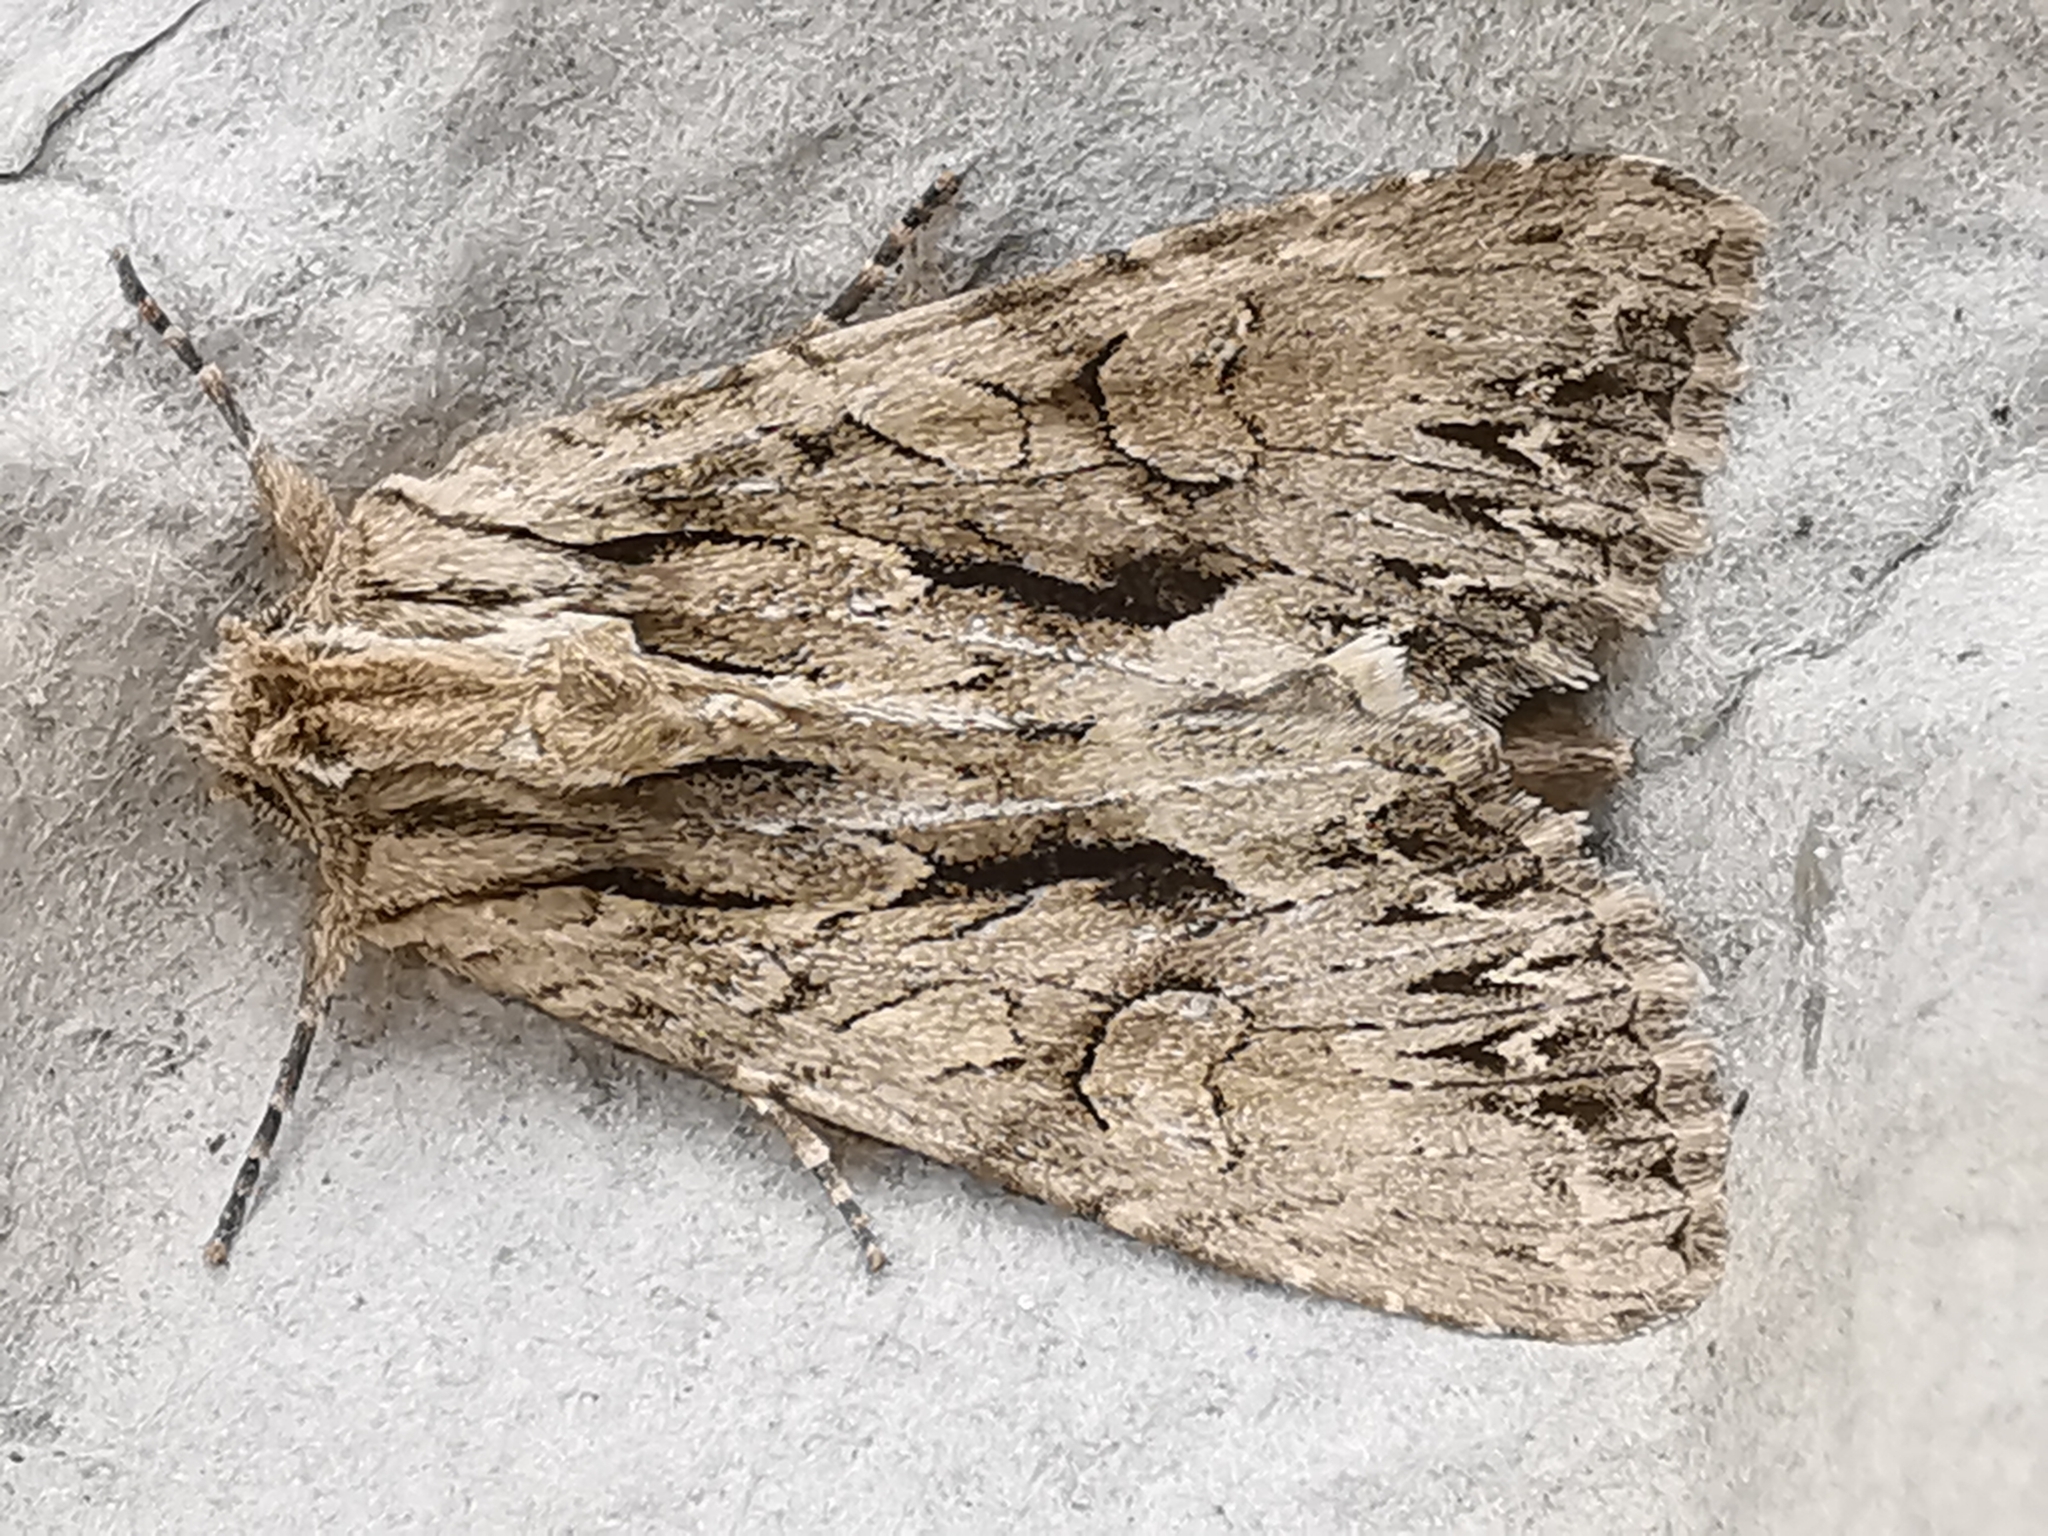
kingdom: Animalia
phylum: Arthropoda
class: Insecta
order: Lepidoptera
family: Noctuidae
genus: Apamea
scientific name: Apamea monoglypha
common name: Dark arches
